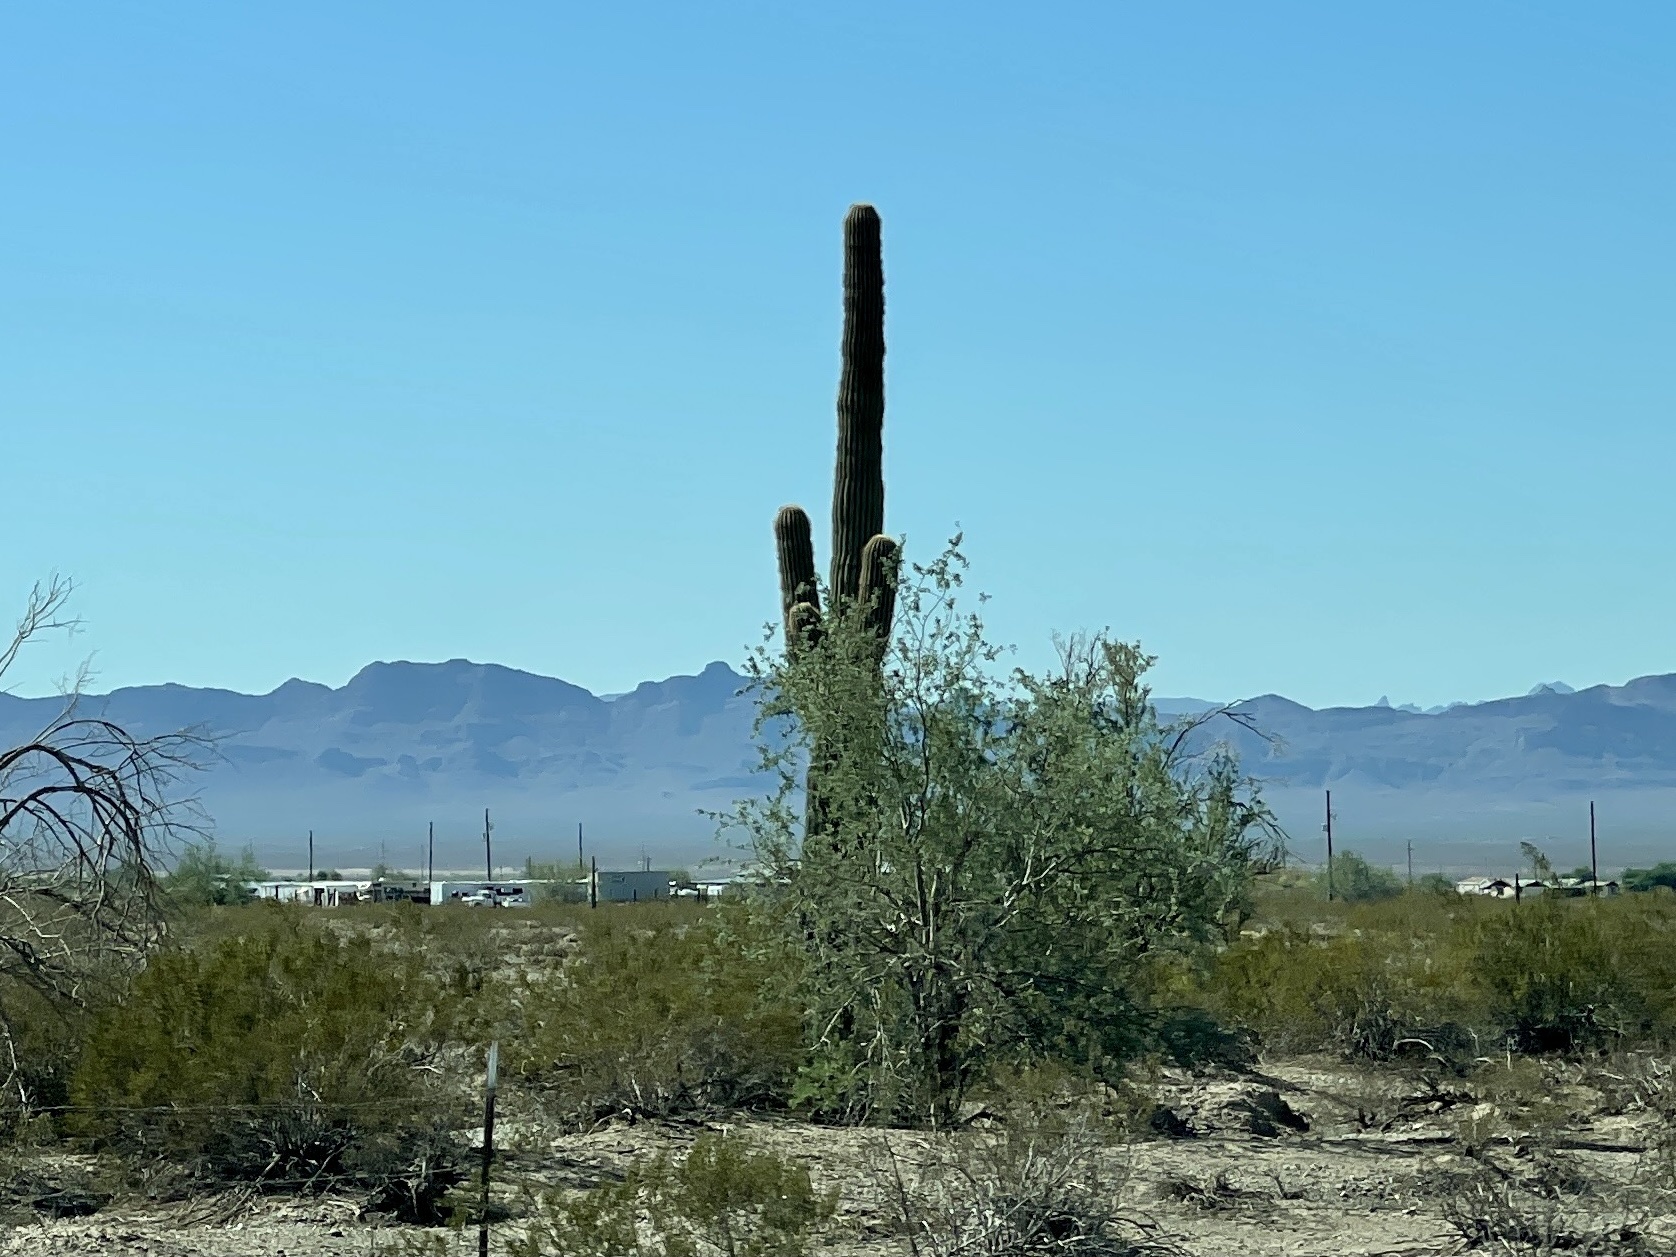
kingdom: Plantae
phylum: Tracheophyta
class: Magnoliopsida
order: Caryophyllales
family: Cactaceae
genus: Carnegiea
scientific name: Carnegiea gigantea
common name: Saguaro
